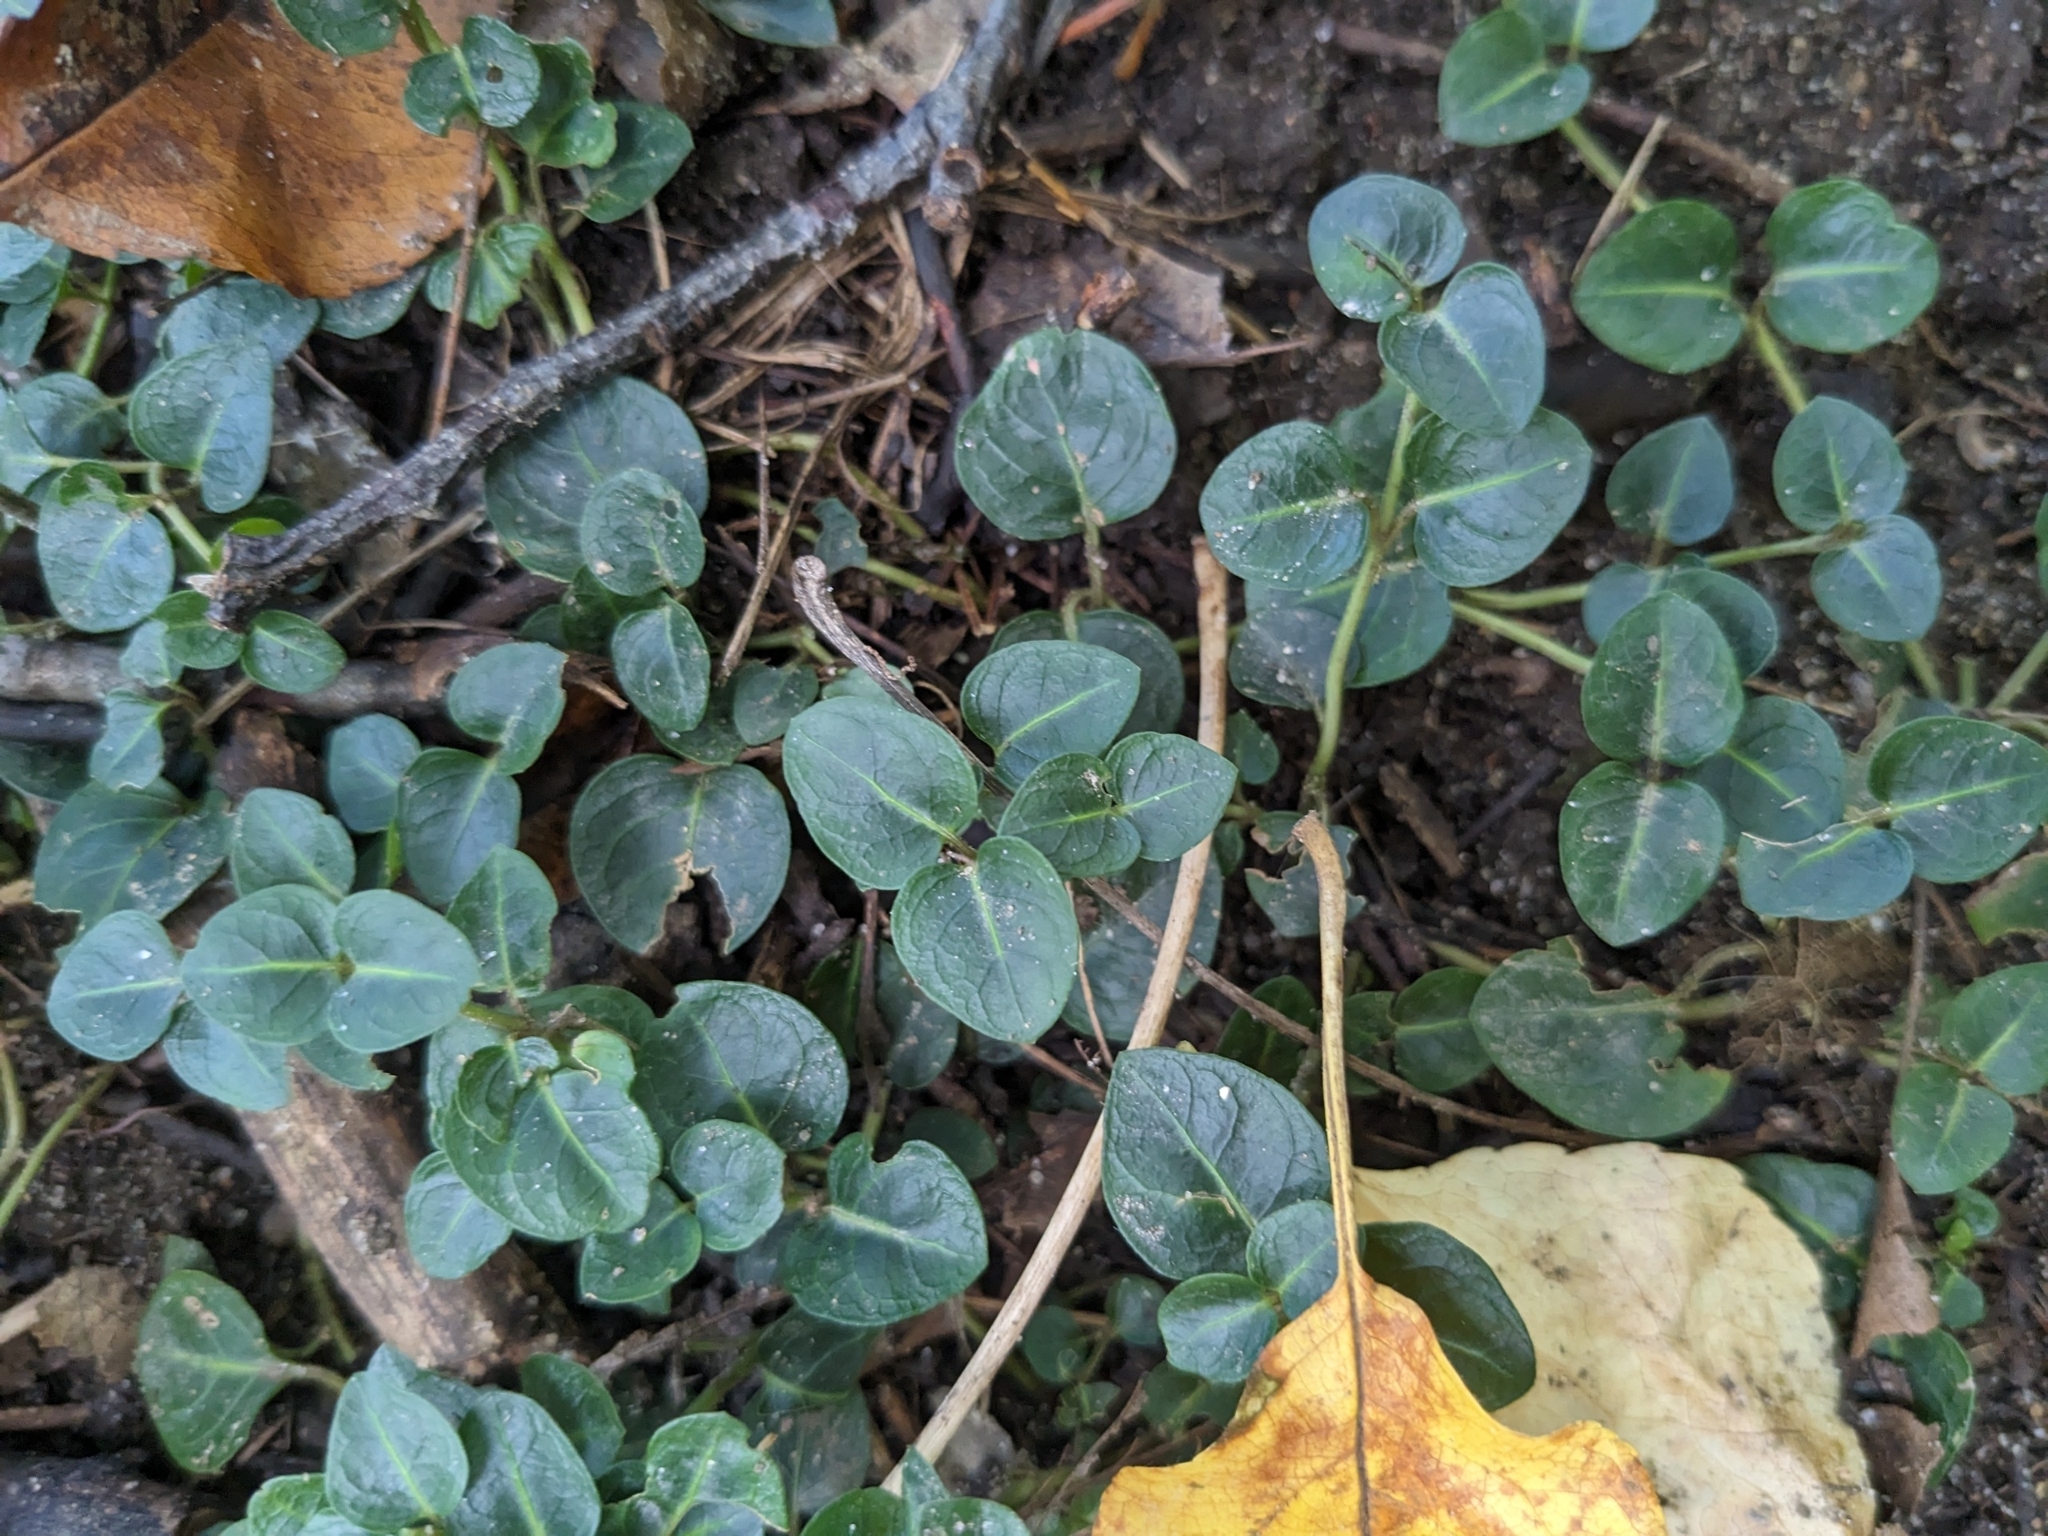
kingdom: Plantae
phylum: Tracheophyta
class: Magnoliopsida
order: Gentianales
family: Rubiaceae
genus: Mitchella
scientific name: Mitchella repens
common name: Partridge-berry
